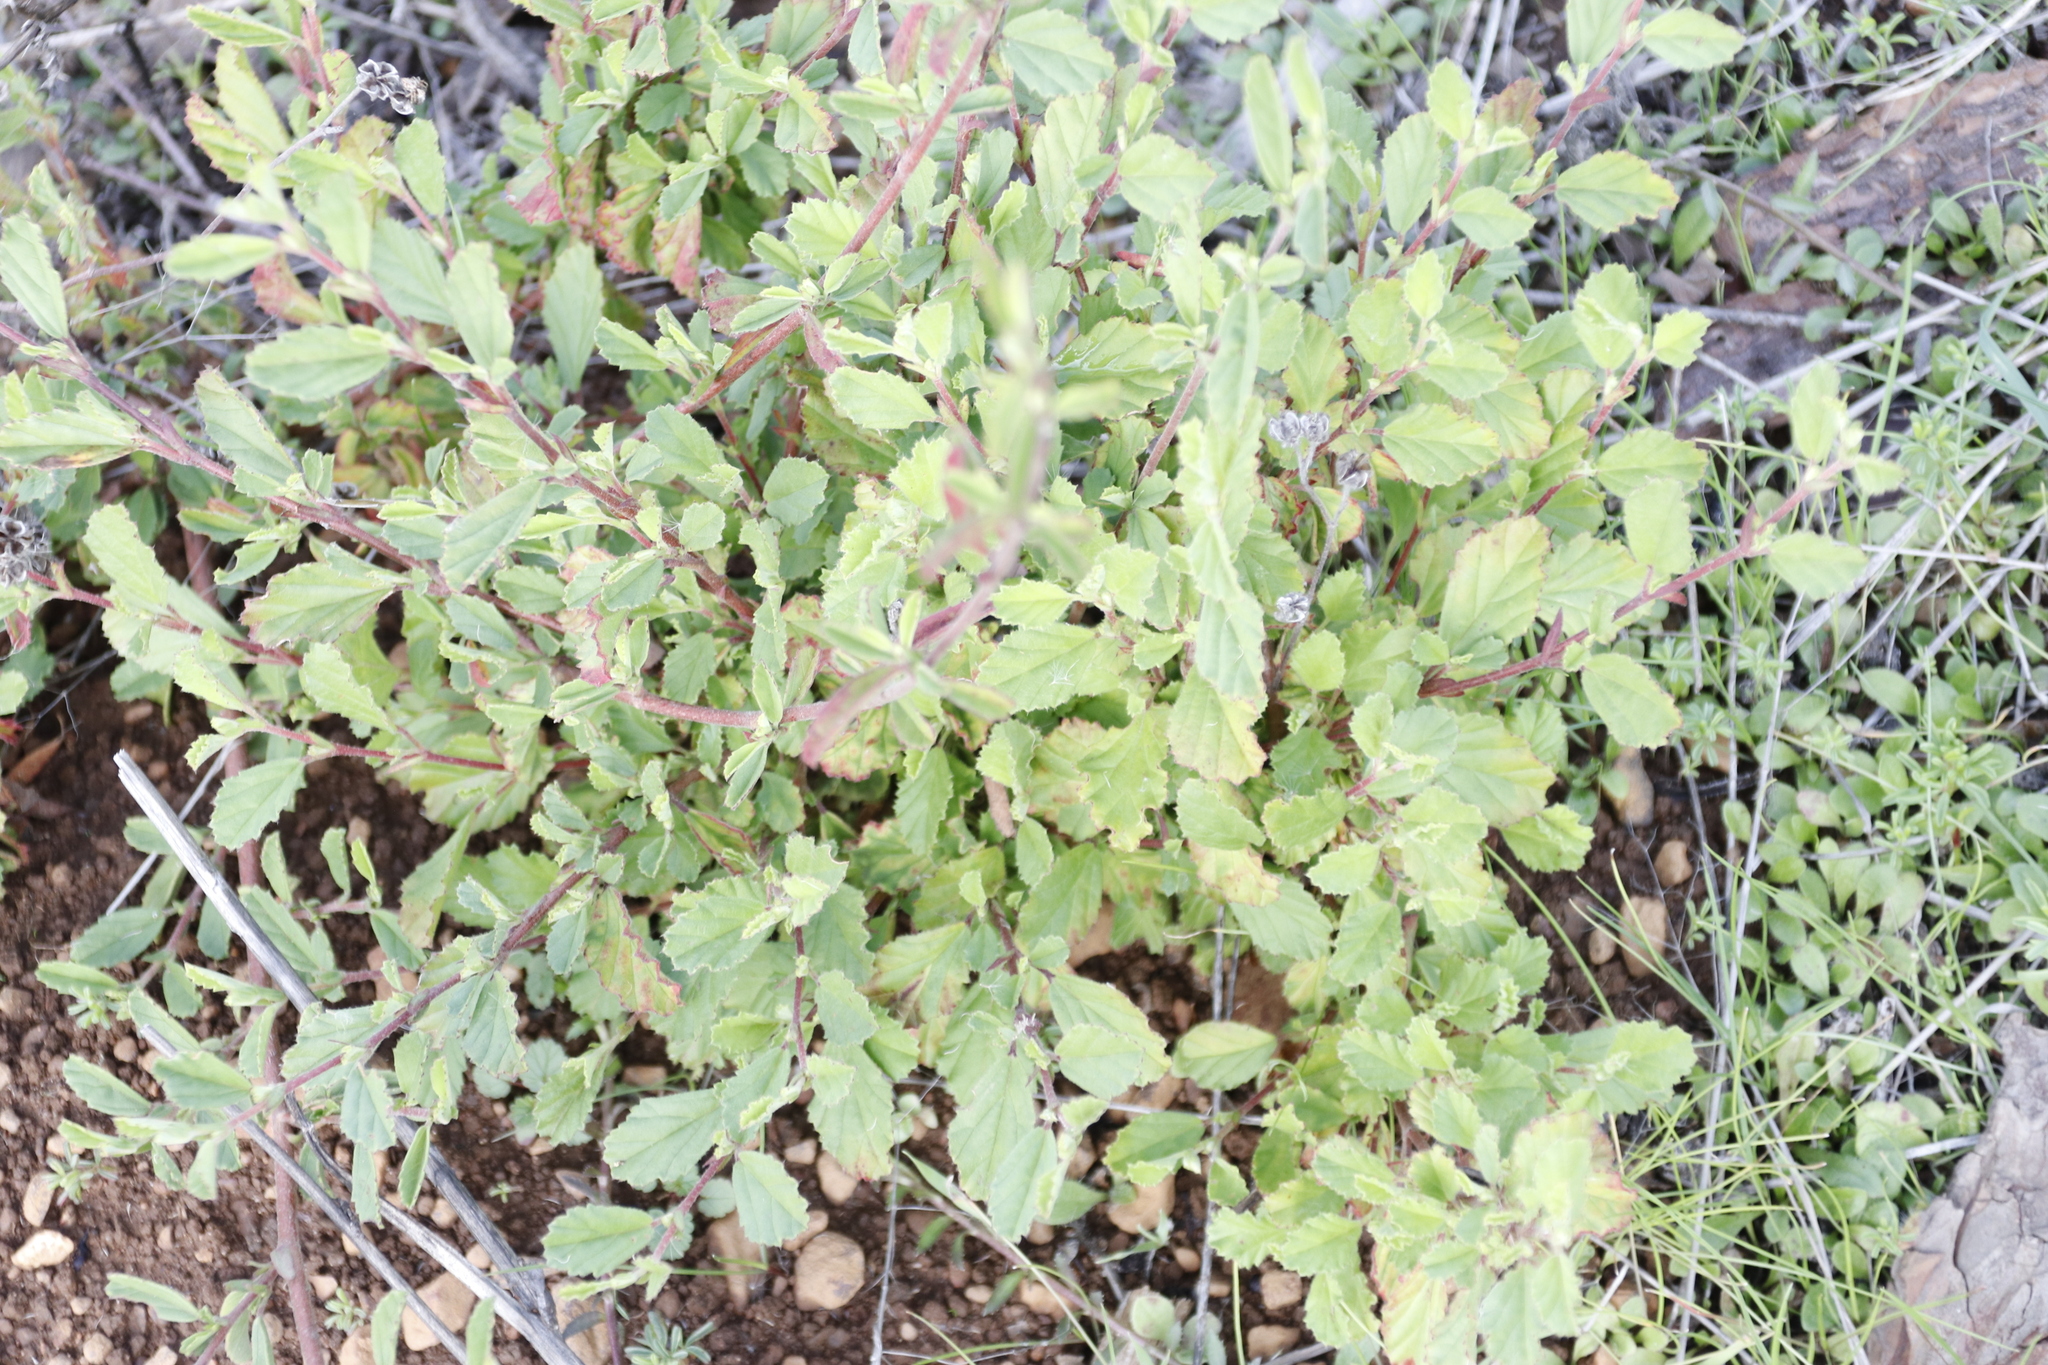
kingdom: Plantae
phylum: Tracheophyta
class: Magnoliopsida
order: Malvales
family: Malvaceae
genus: Hermannia
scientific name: Hermannia multiflora
